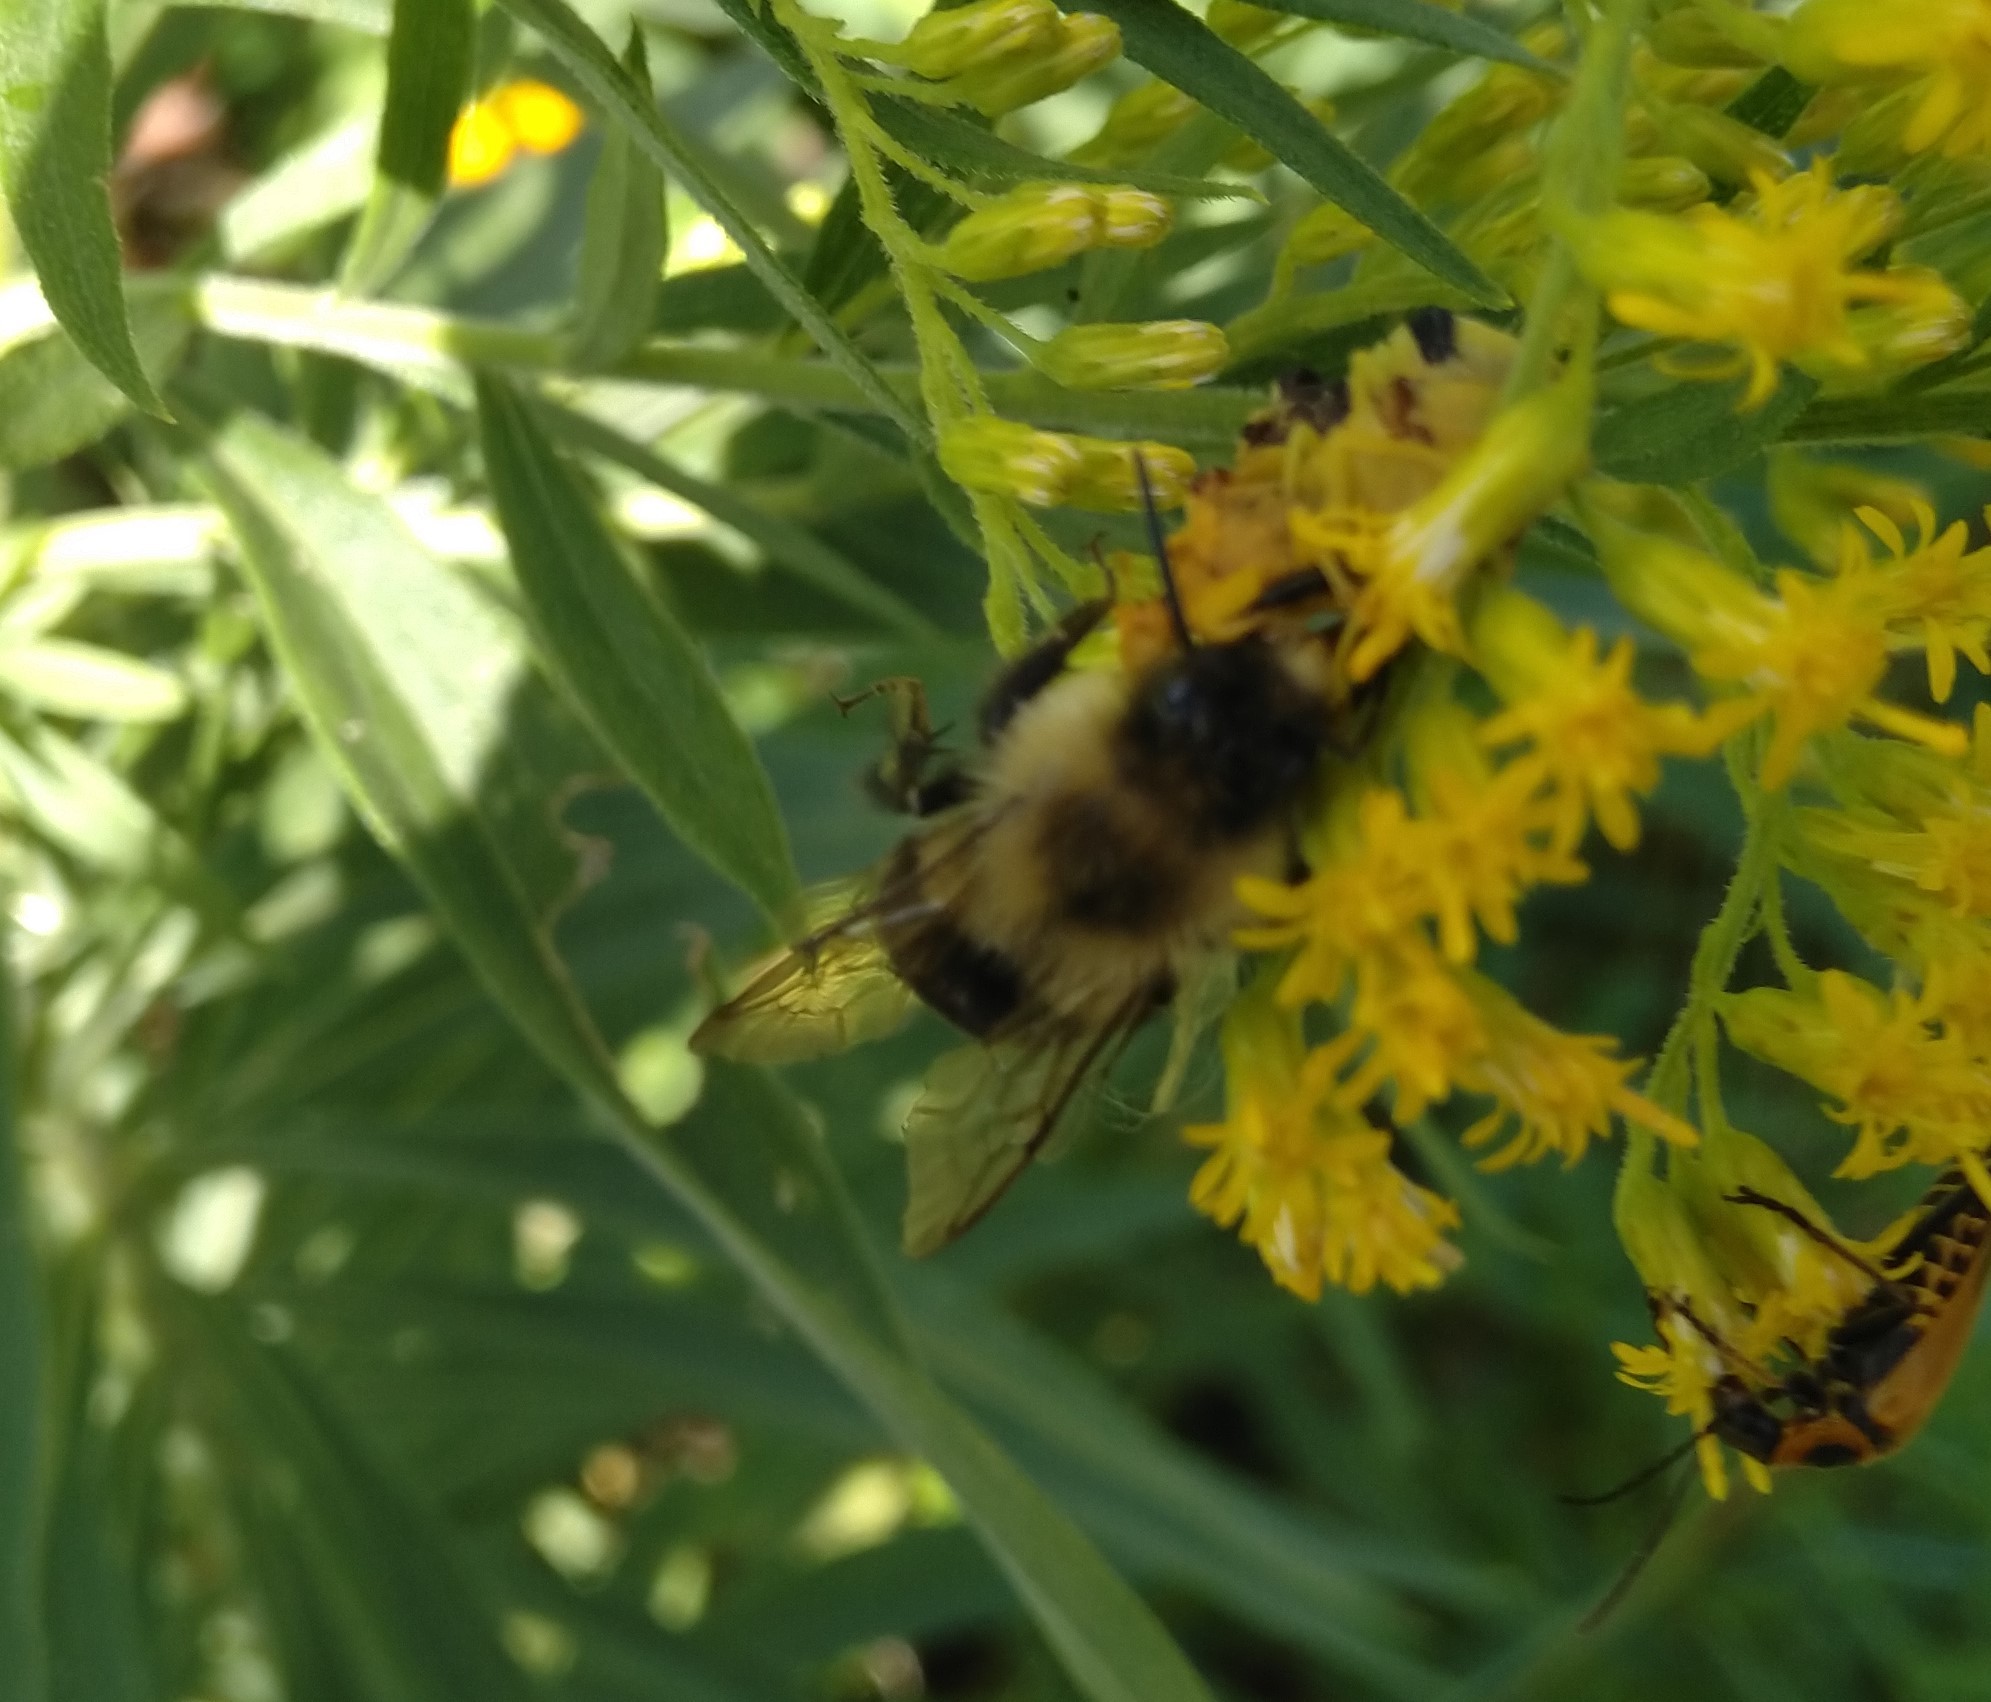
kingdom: Animalia
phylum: Arthropoda
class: Insecta
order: Hymenoptera
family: Apidae
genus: Bombus
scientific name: Bombus impatiens
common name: Common eastern bumble bee
